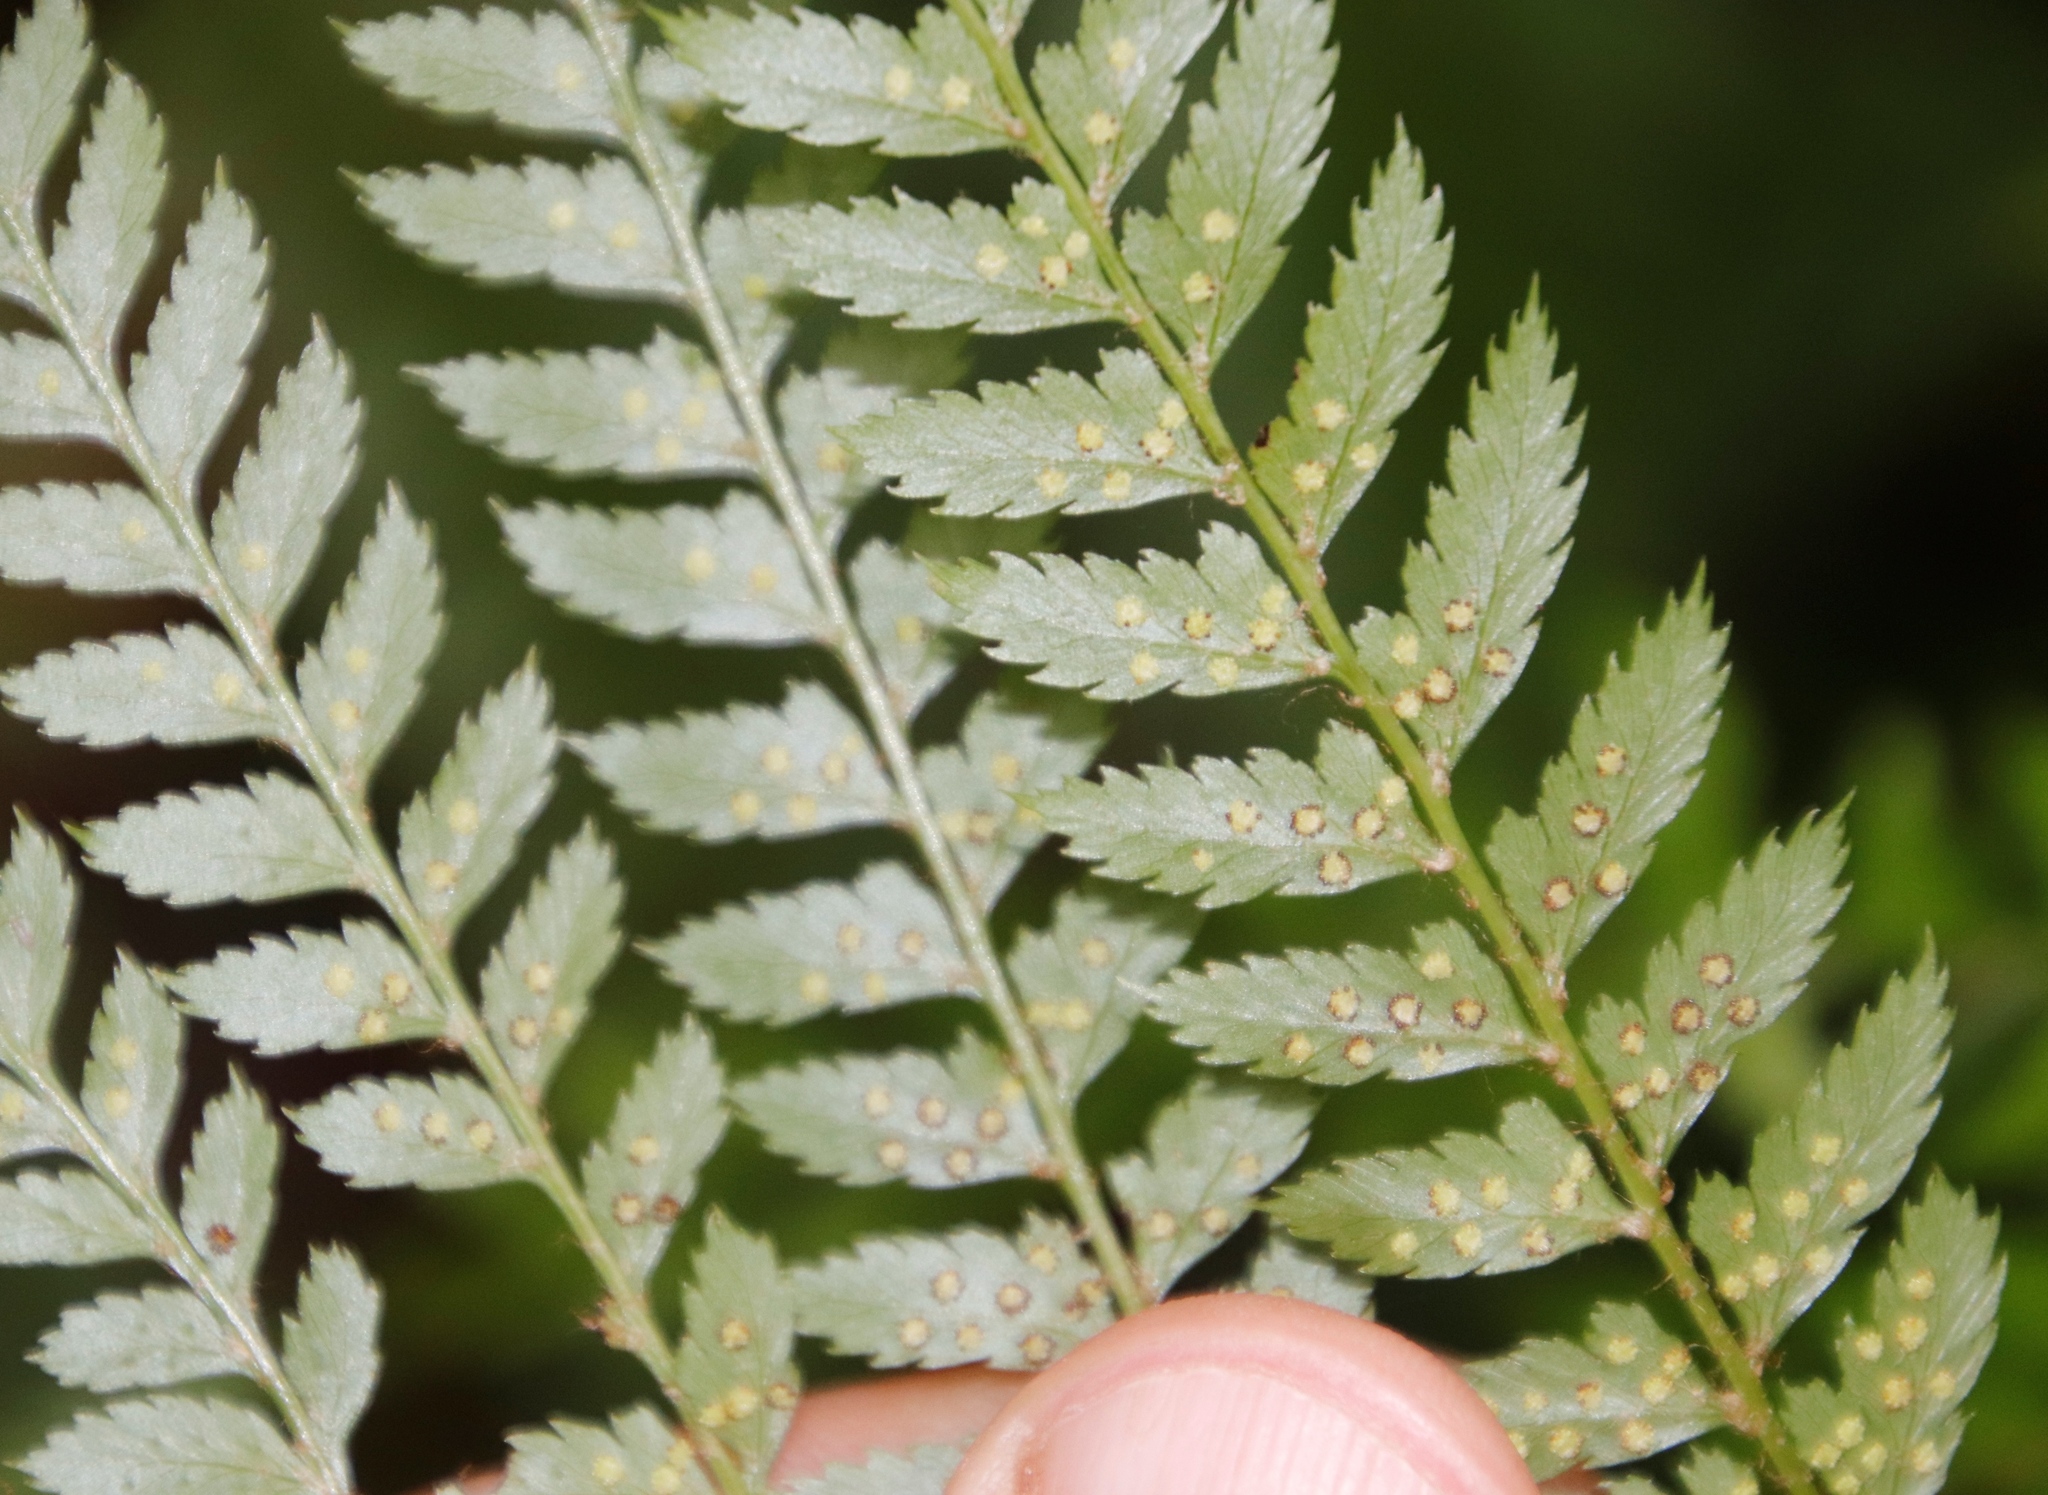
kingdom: Plantae
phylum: Tracheophyta
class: Polypodiopsida
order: Polypodiales
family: Dryopteridaceae
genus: Polystichum
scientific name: Polystichum pungens
